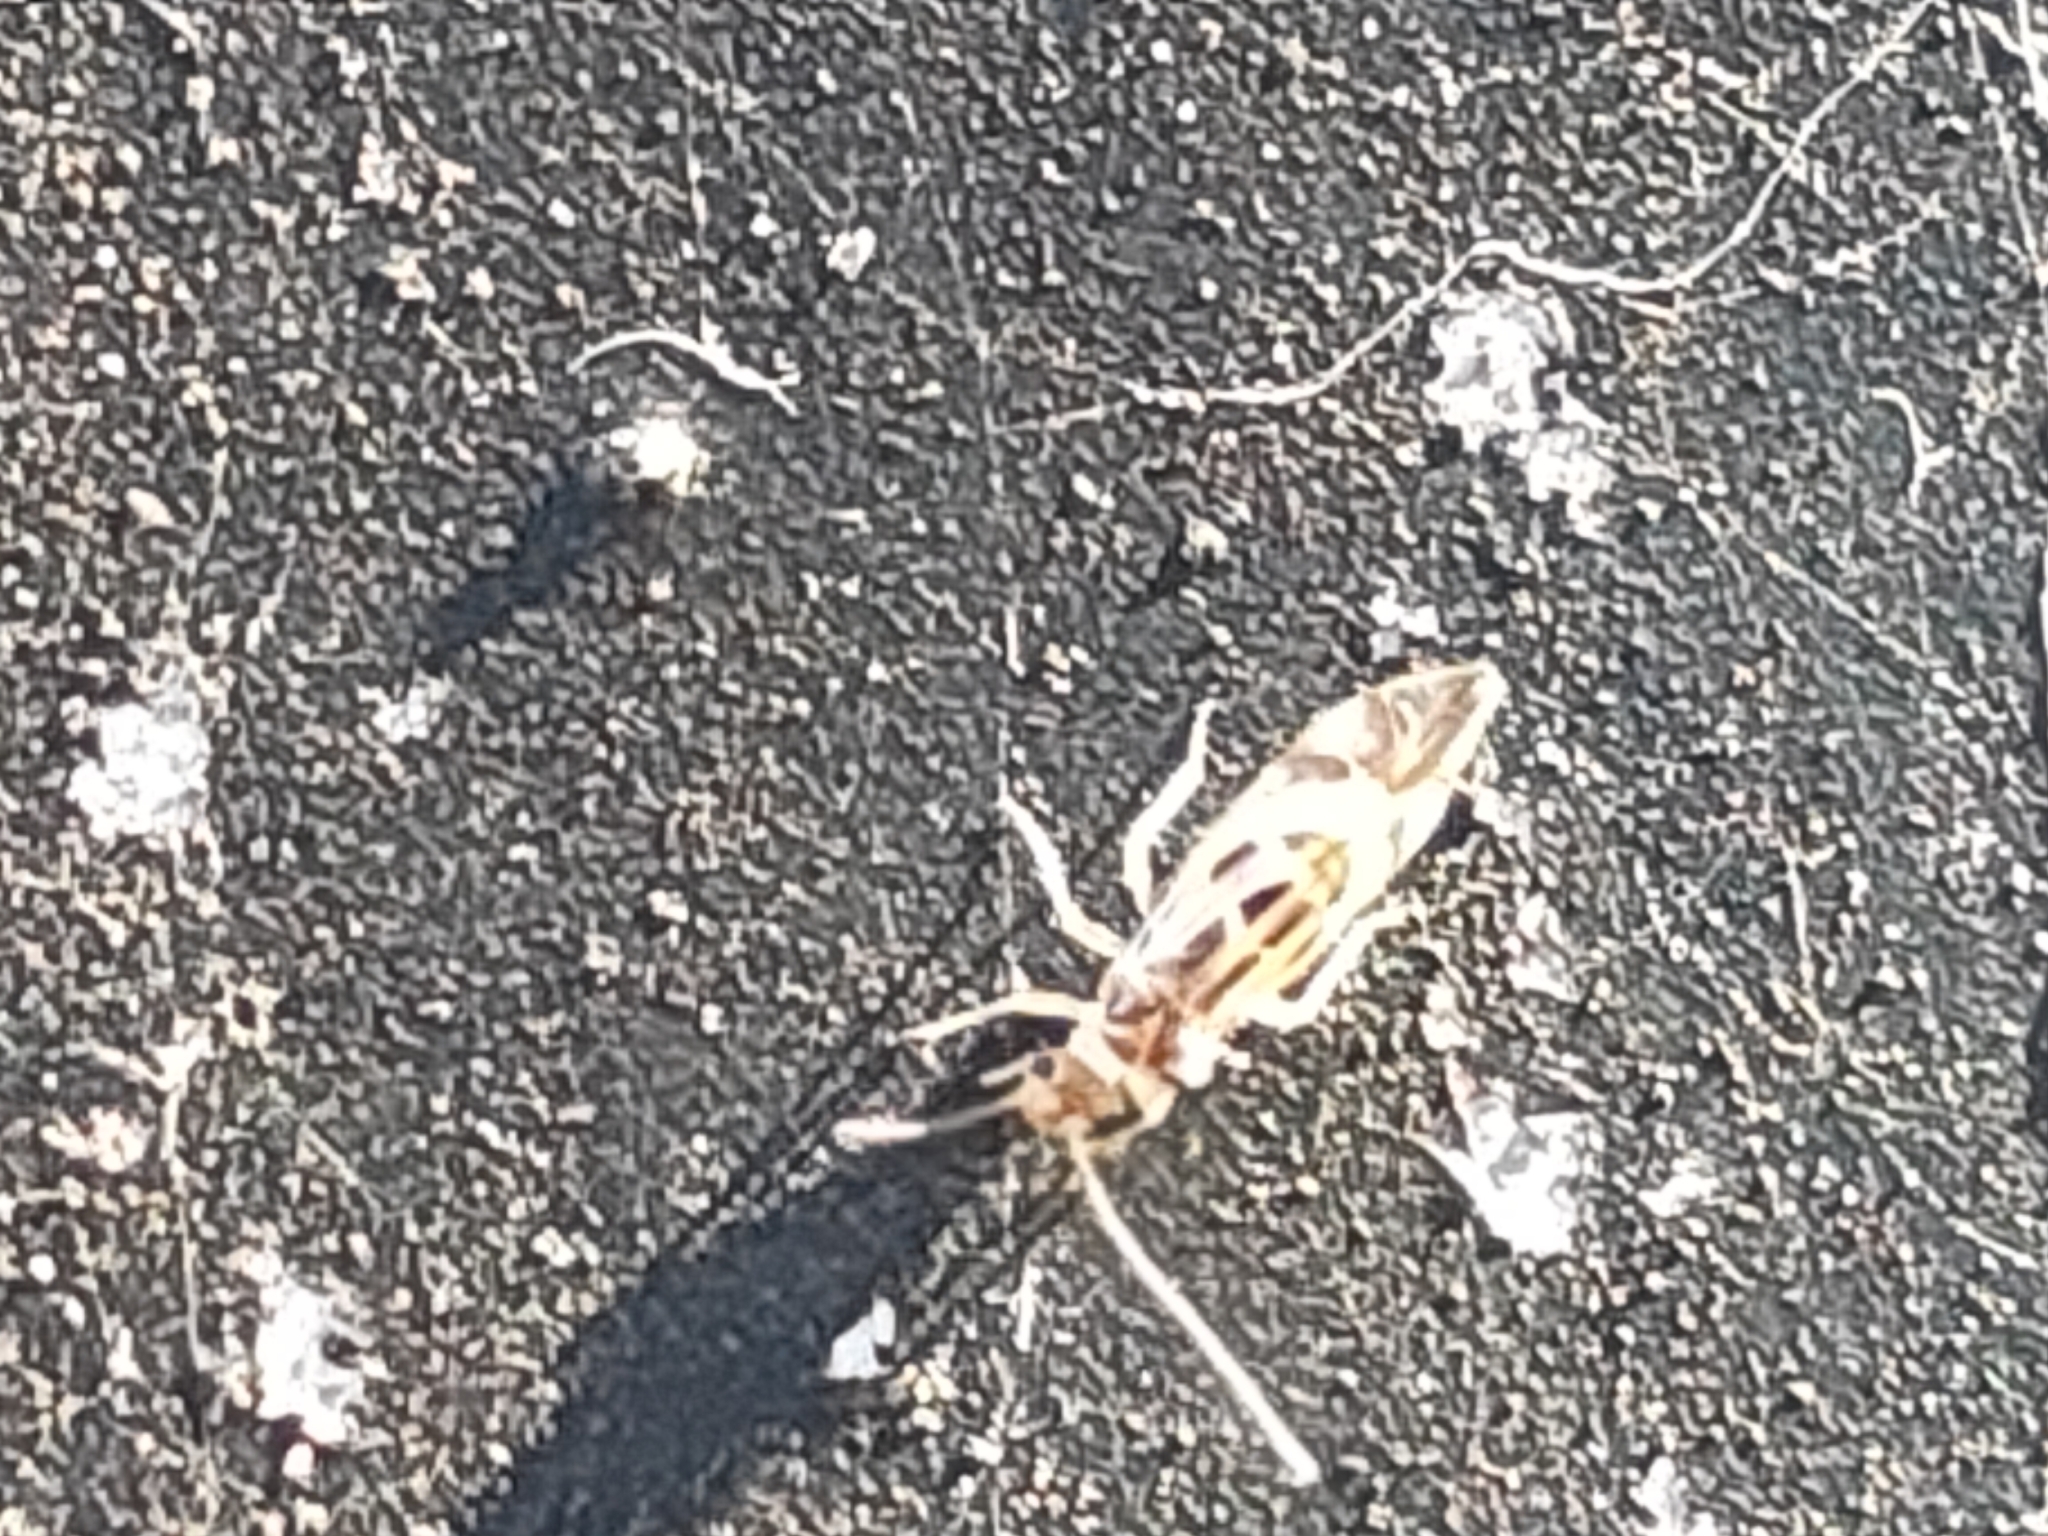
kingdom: Animalia
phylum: Arthropoda
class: Insecta
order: Psocodea
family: Stenopsocidae
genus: Graphopsocus
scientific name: Graphopsocus cruciatus
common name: Lizard bark louse
